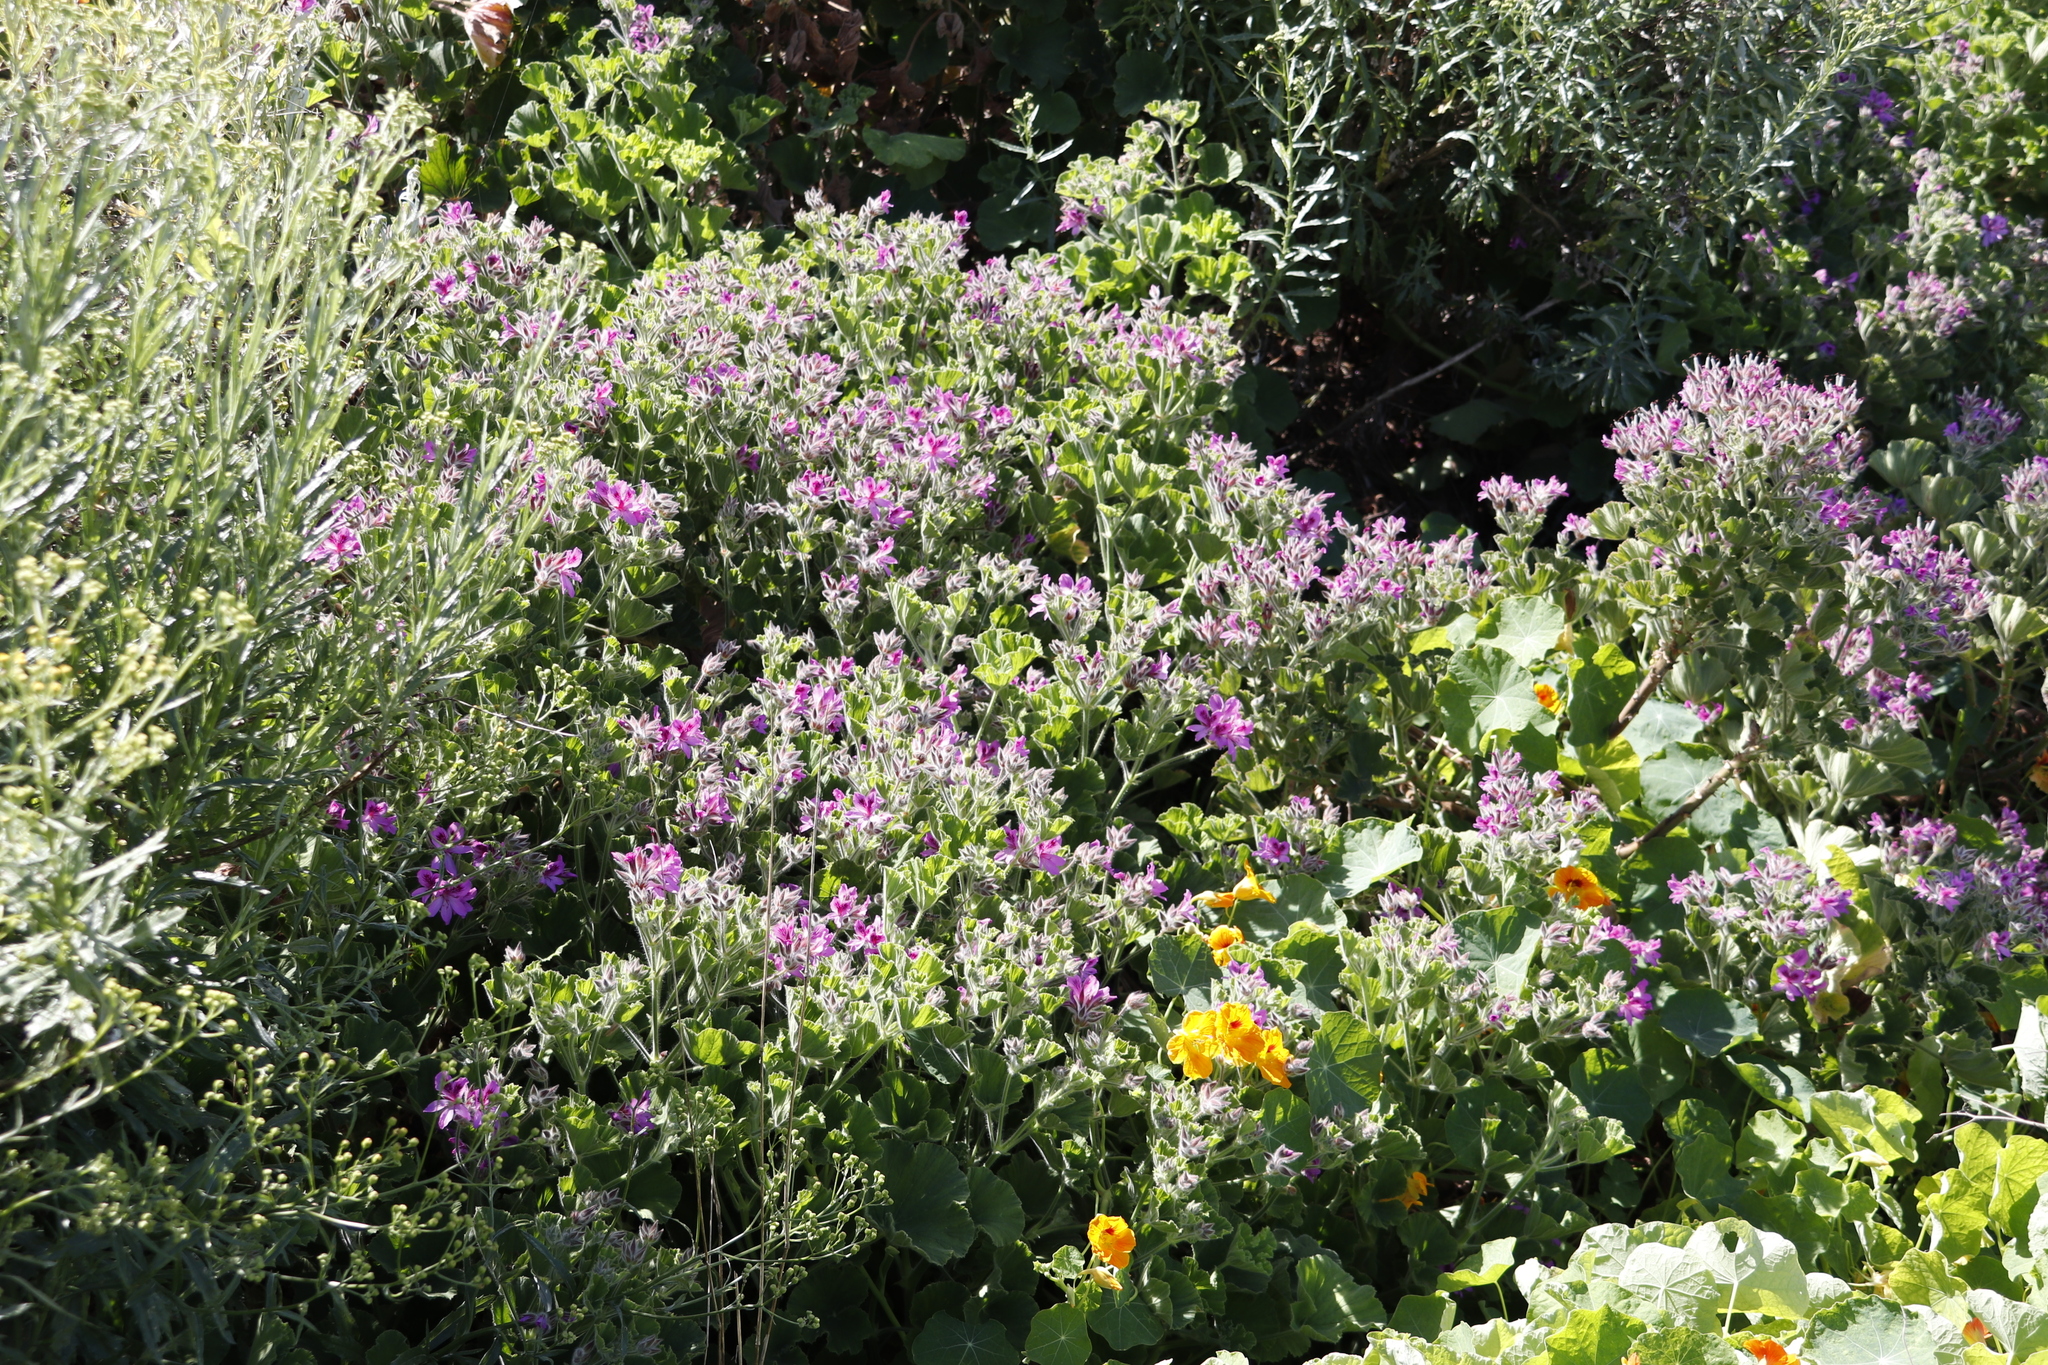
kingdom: Plantae
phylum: Tracheophyta
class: Magnoliopsida
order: Geraniales
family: Geraniaceae
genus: Pelargonium
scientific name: Pelargonium cucullatum
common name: Tree pelargonium
